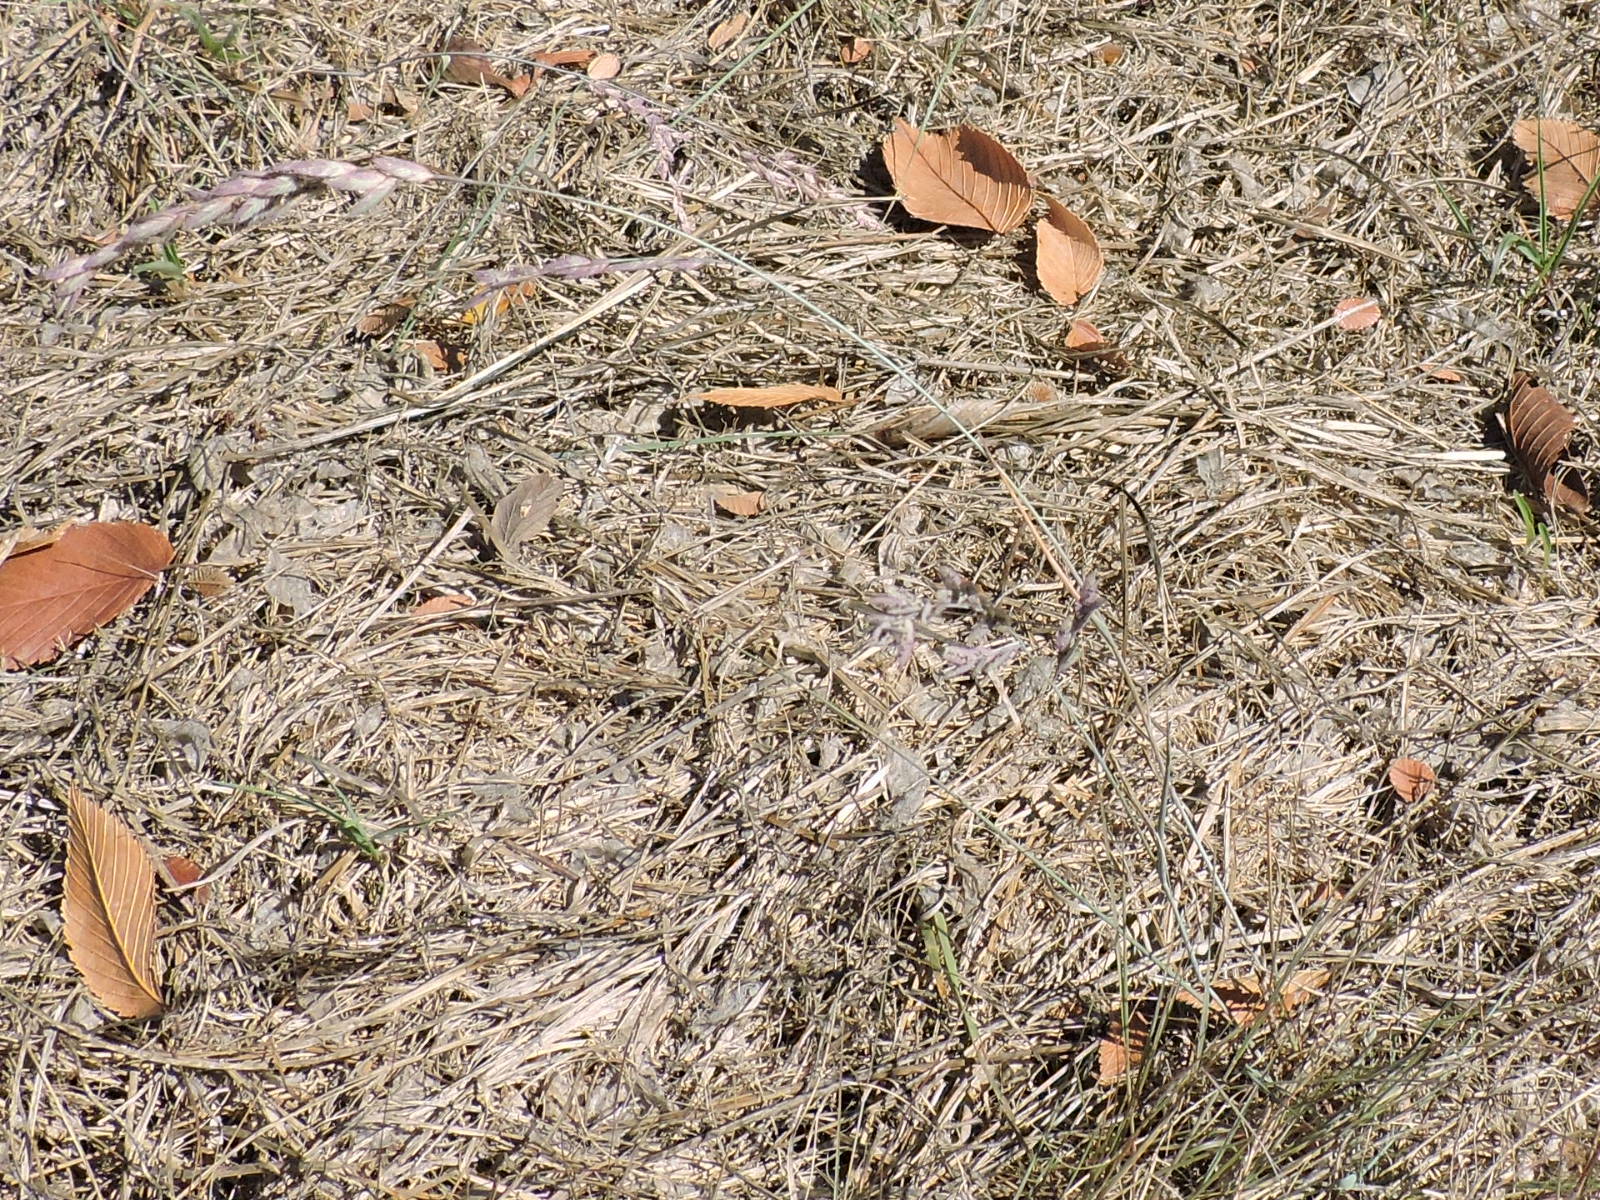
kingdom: Plantae
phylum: Tracheophyta
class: Liliopsida
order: Poales
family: Poaceae
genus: Eragrostis
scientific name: Eragrostis secundiflora
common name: Red love grass
